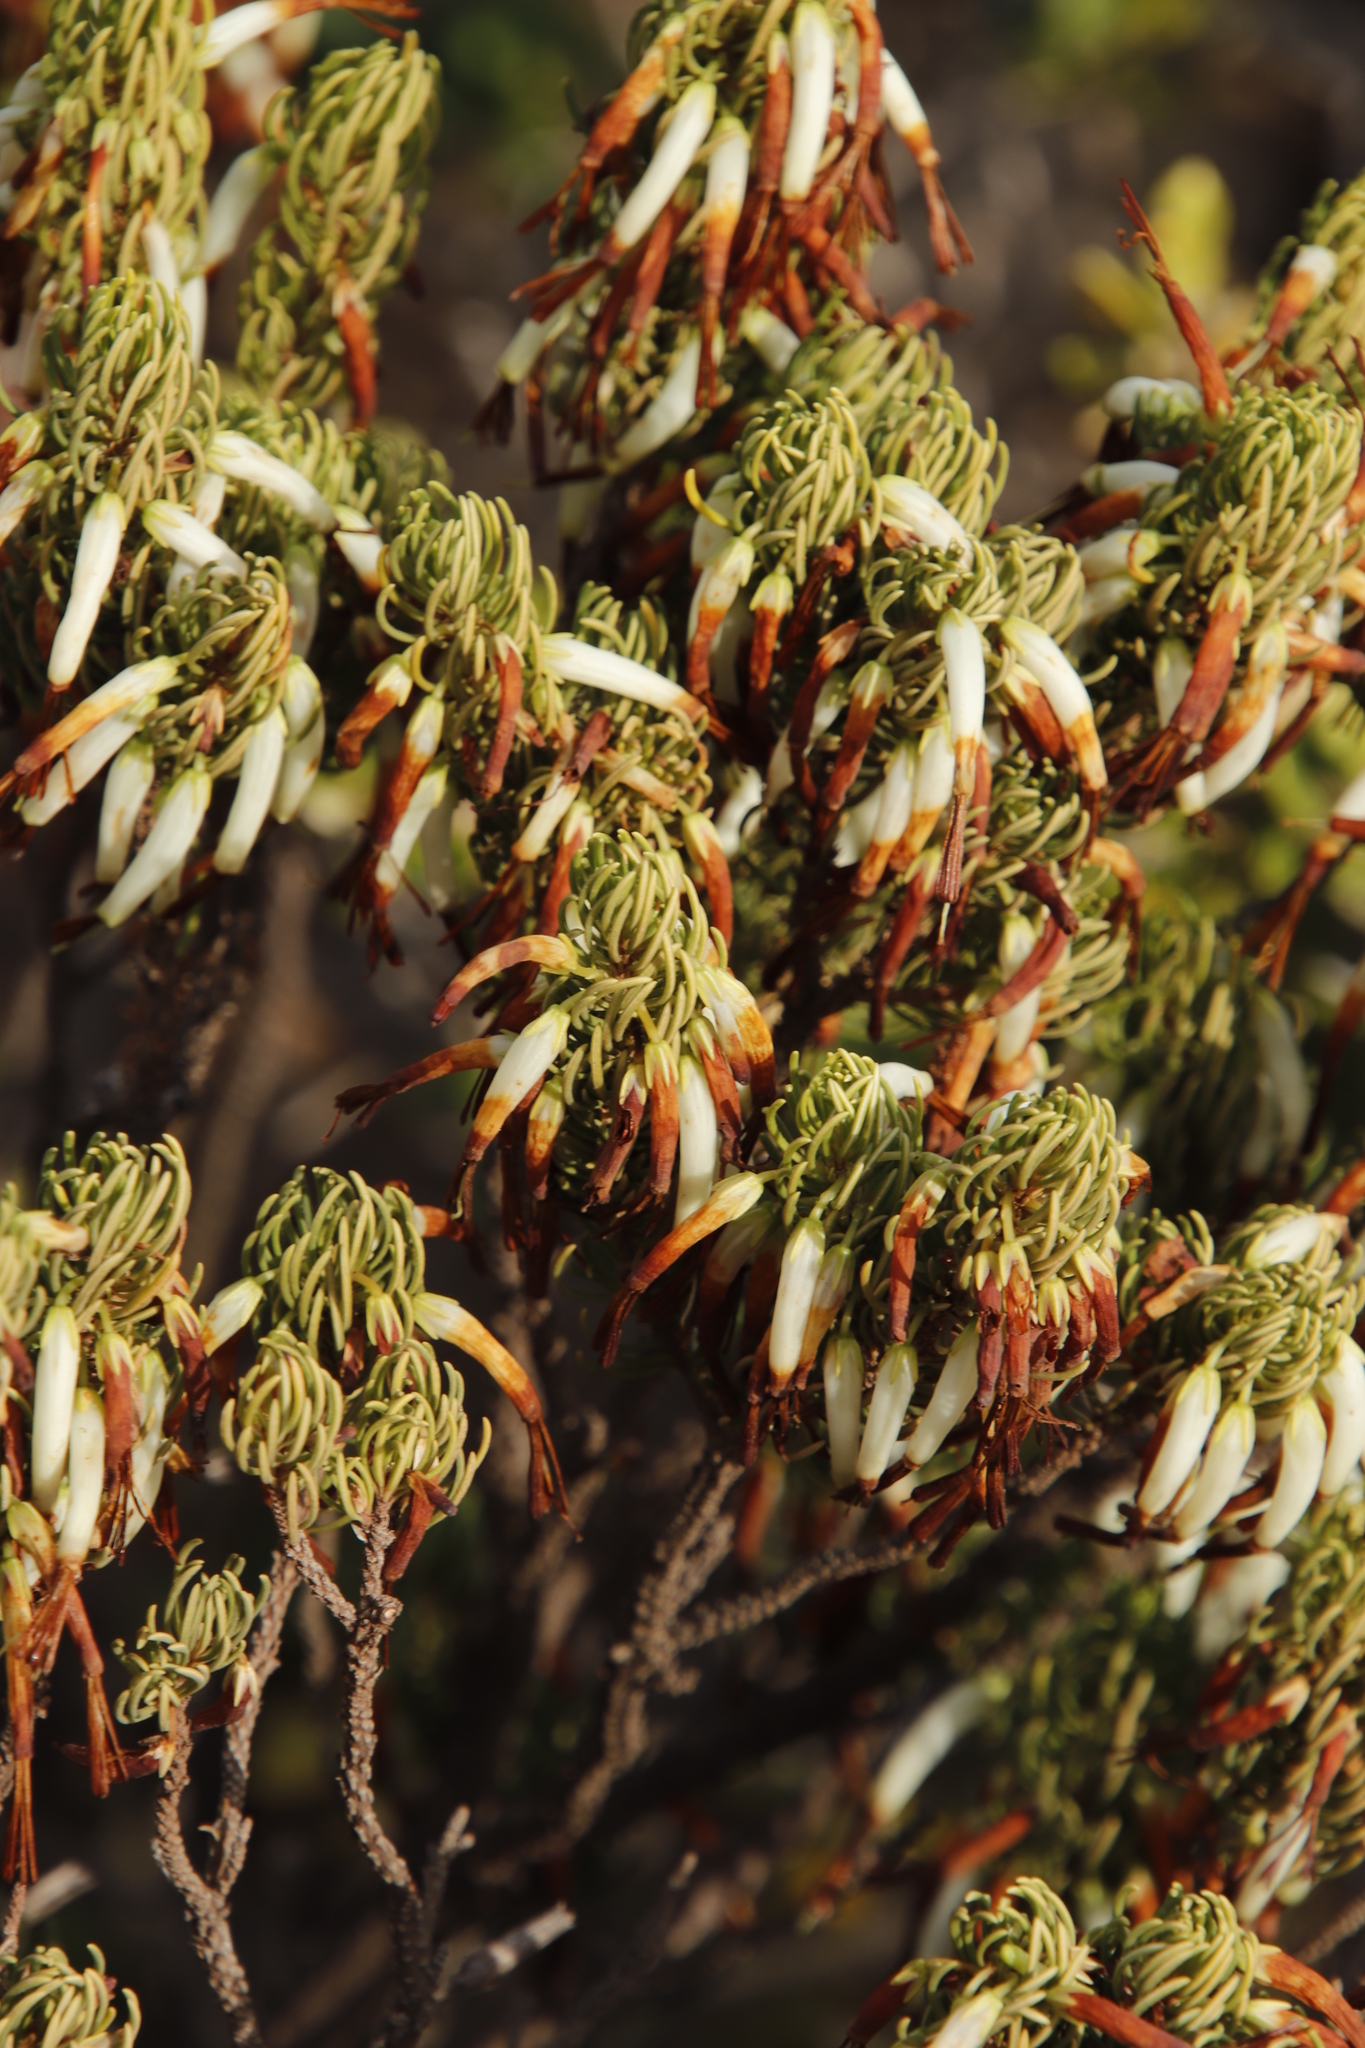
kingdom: Plantae
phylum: Tracheophyta
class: Magnoliopsida
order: Ericales
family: Ericaceae
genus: Erica
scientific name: Erica plukenetii
